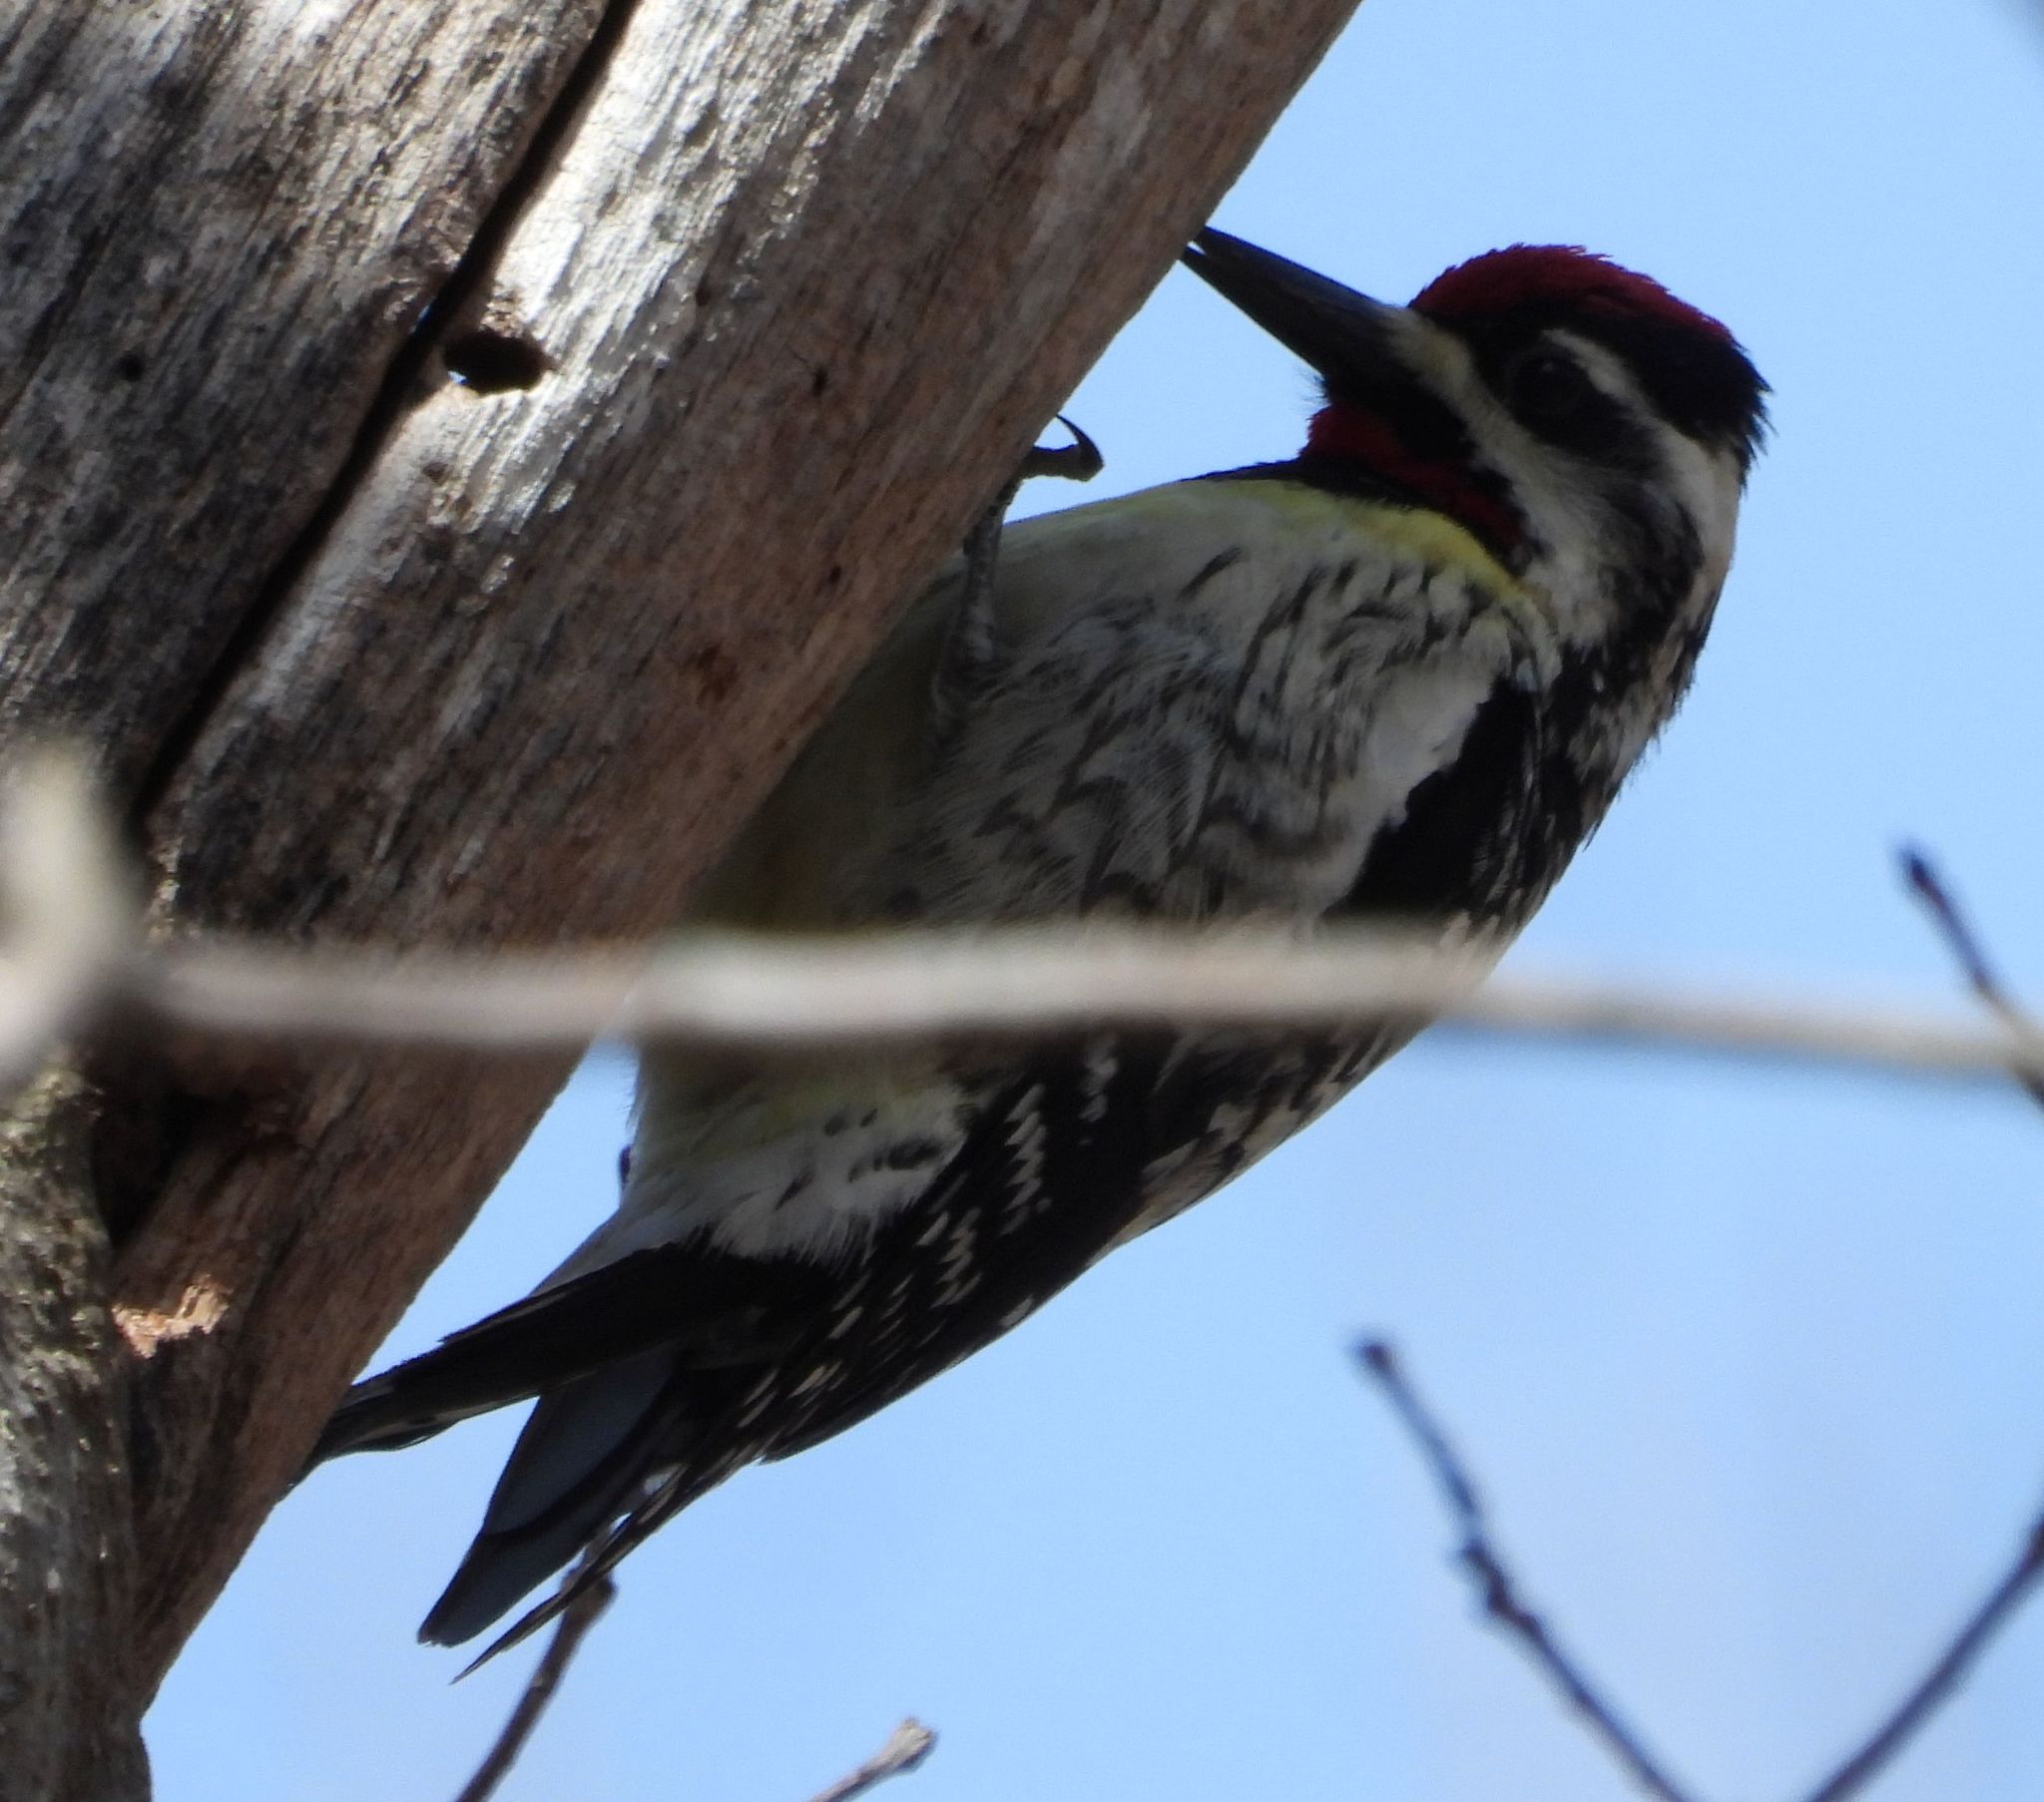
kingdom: Animalia
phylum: Chordata
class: Aves
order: Piciformes
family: Picidae
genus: Sphyrapicus
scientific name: Sphyrapicus varius
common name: Yellow-bellied sapsucker
